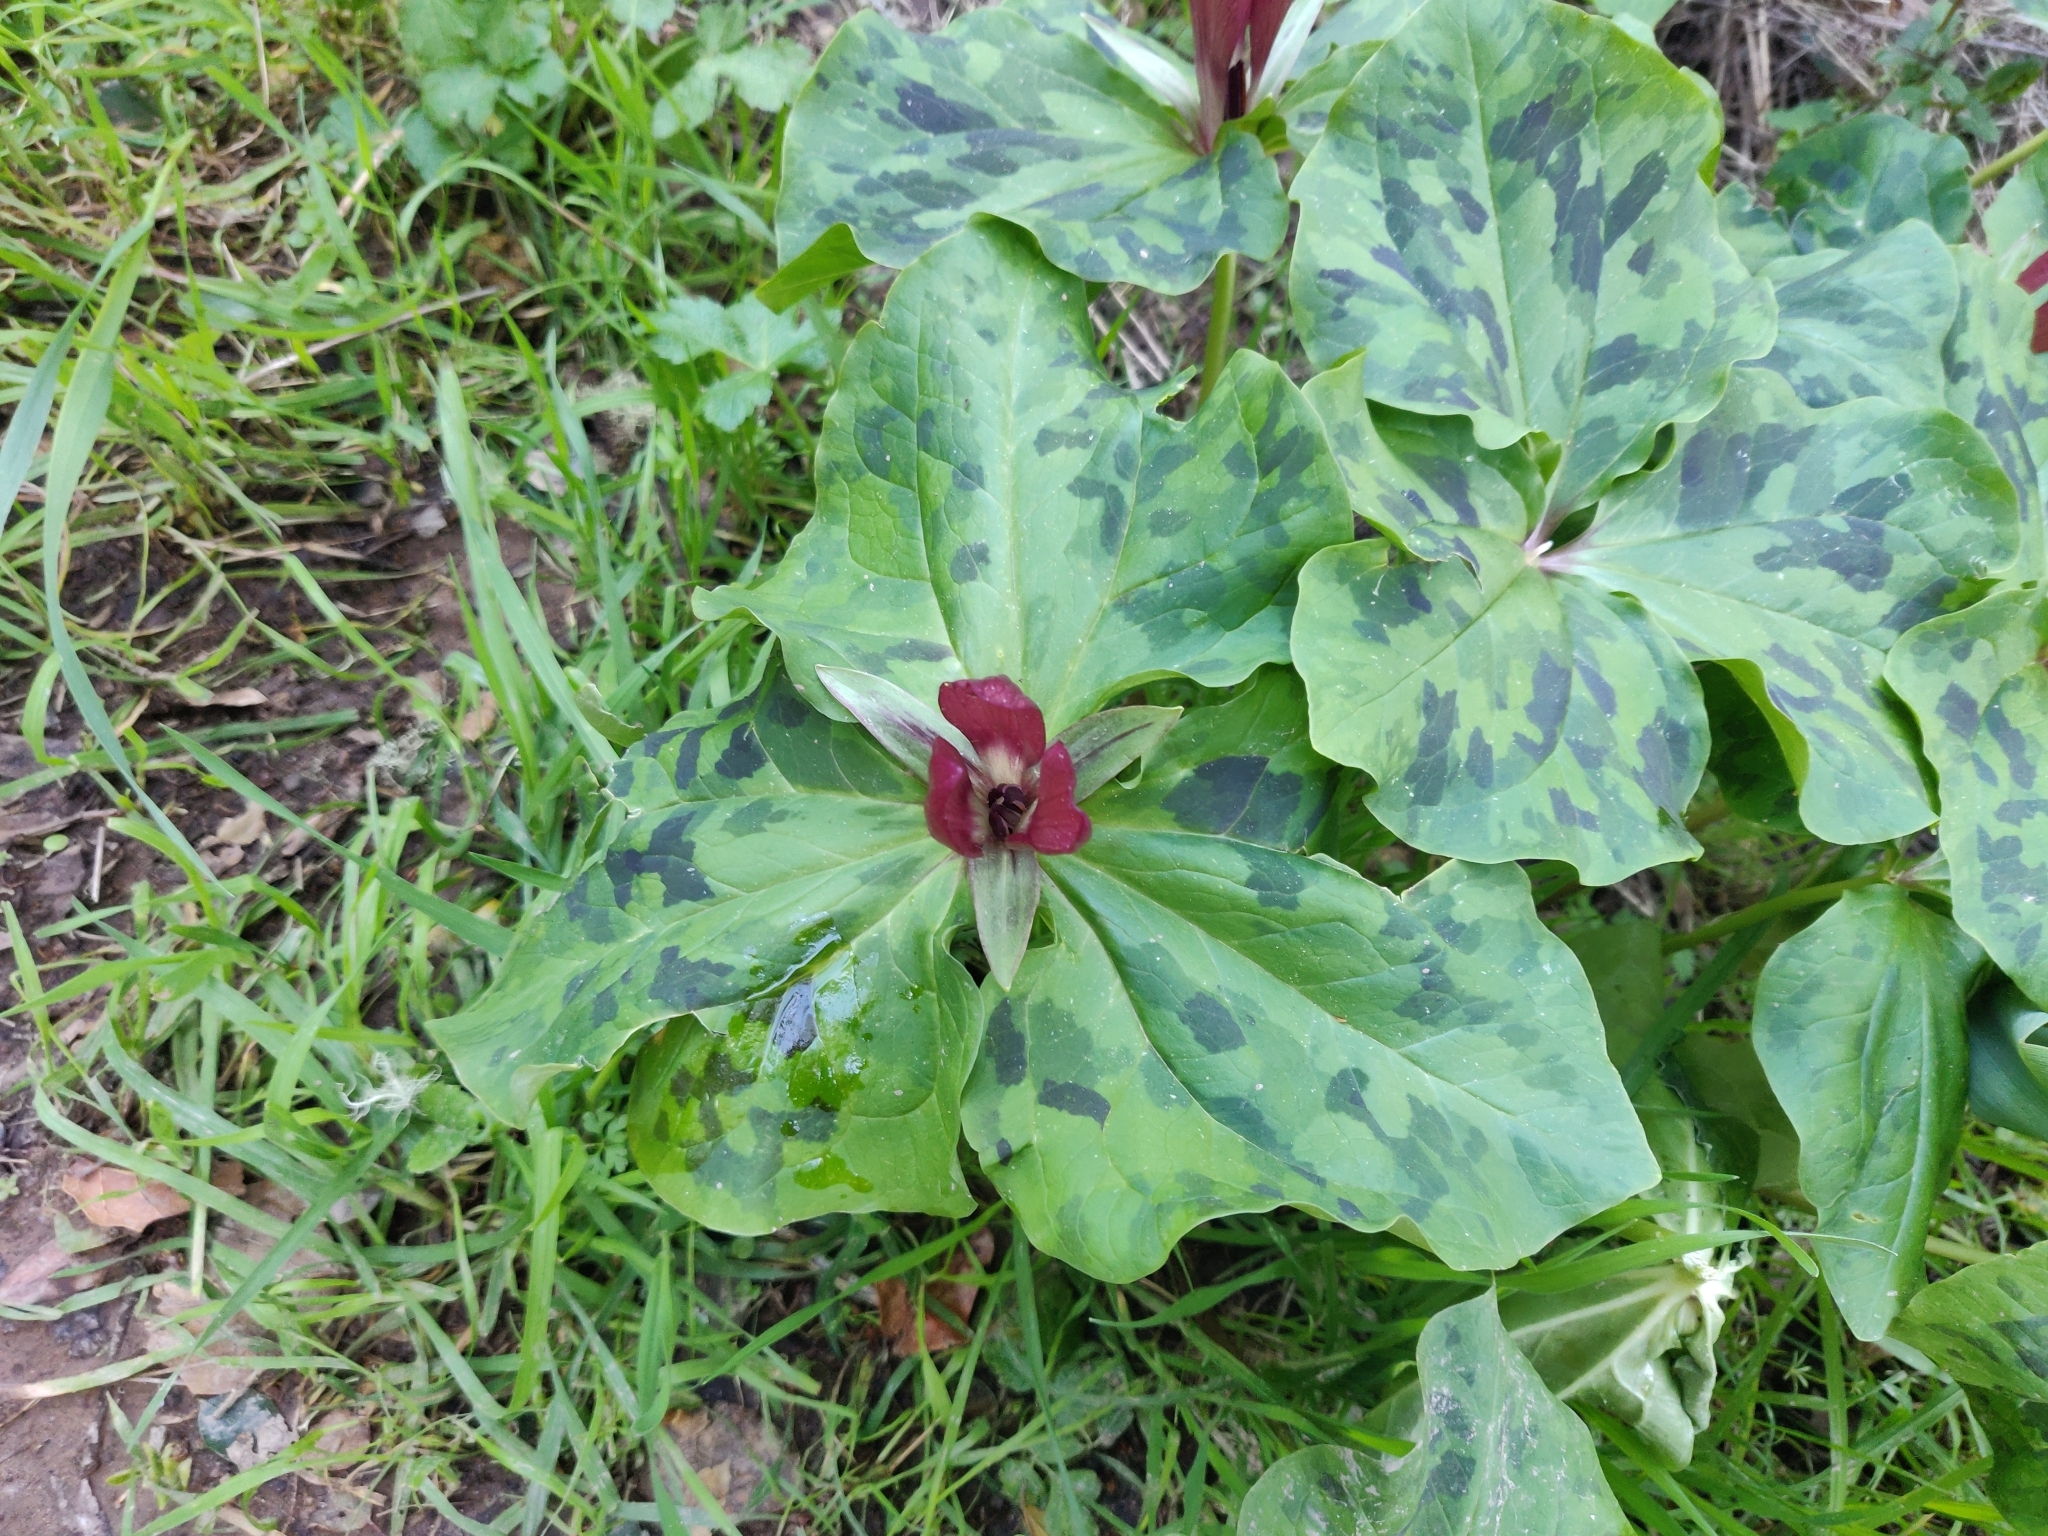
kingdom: Plantae
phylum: Tracheophyta
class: Liliopsida
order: Liliales
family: Melanthiaceae
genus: Trillium
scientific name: Trillium chloropetalum
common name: Giant trillium
